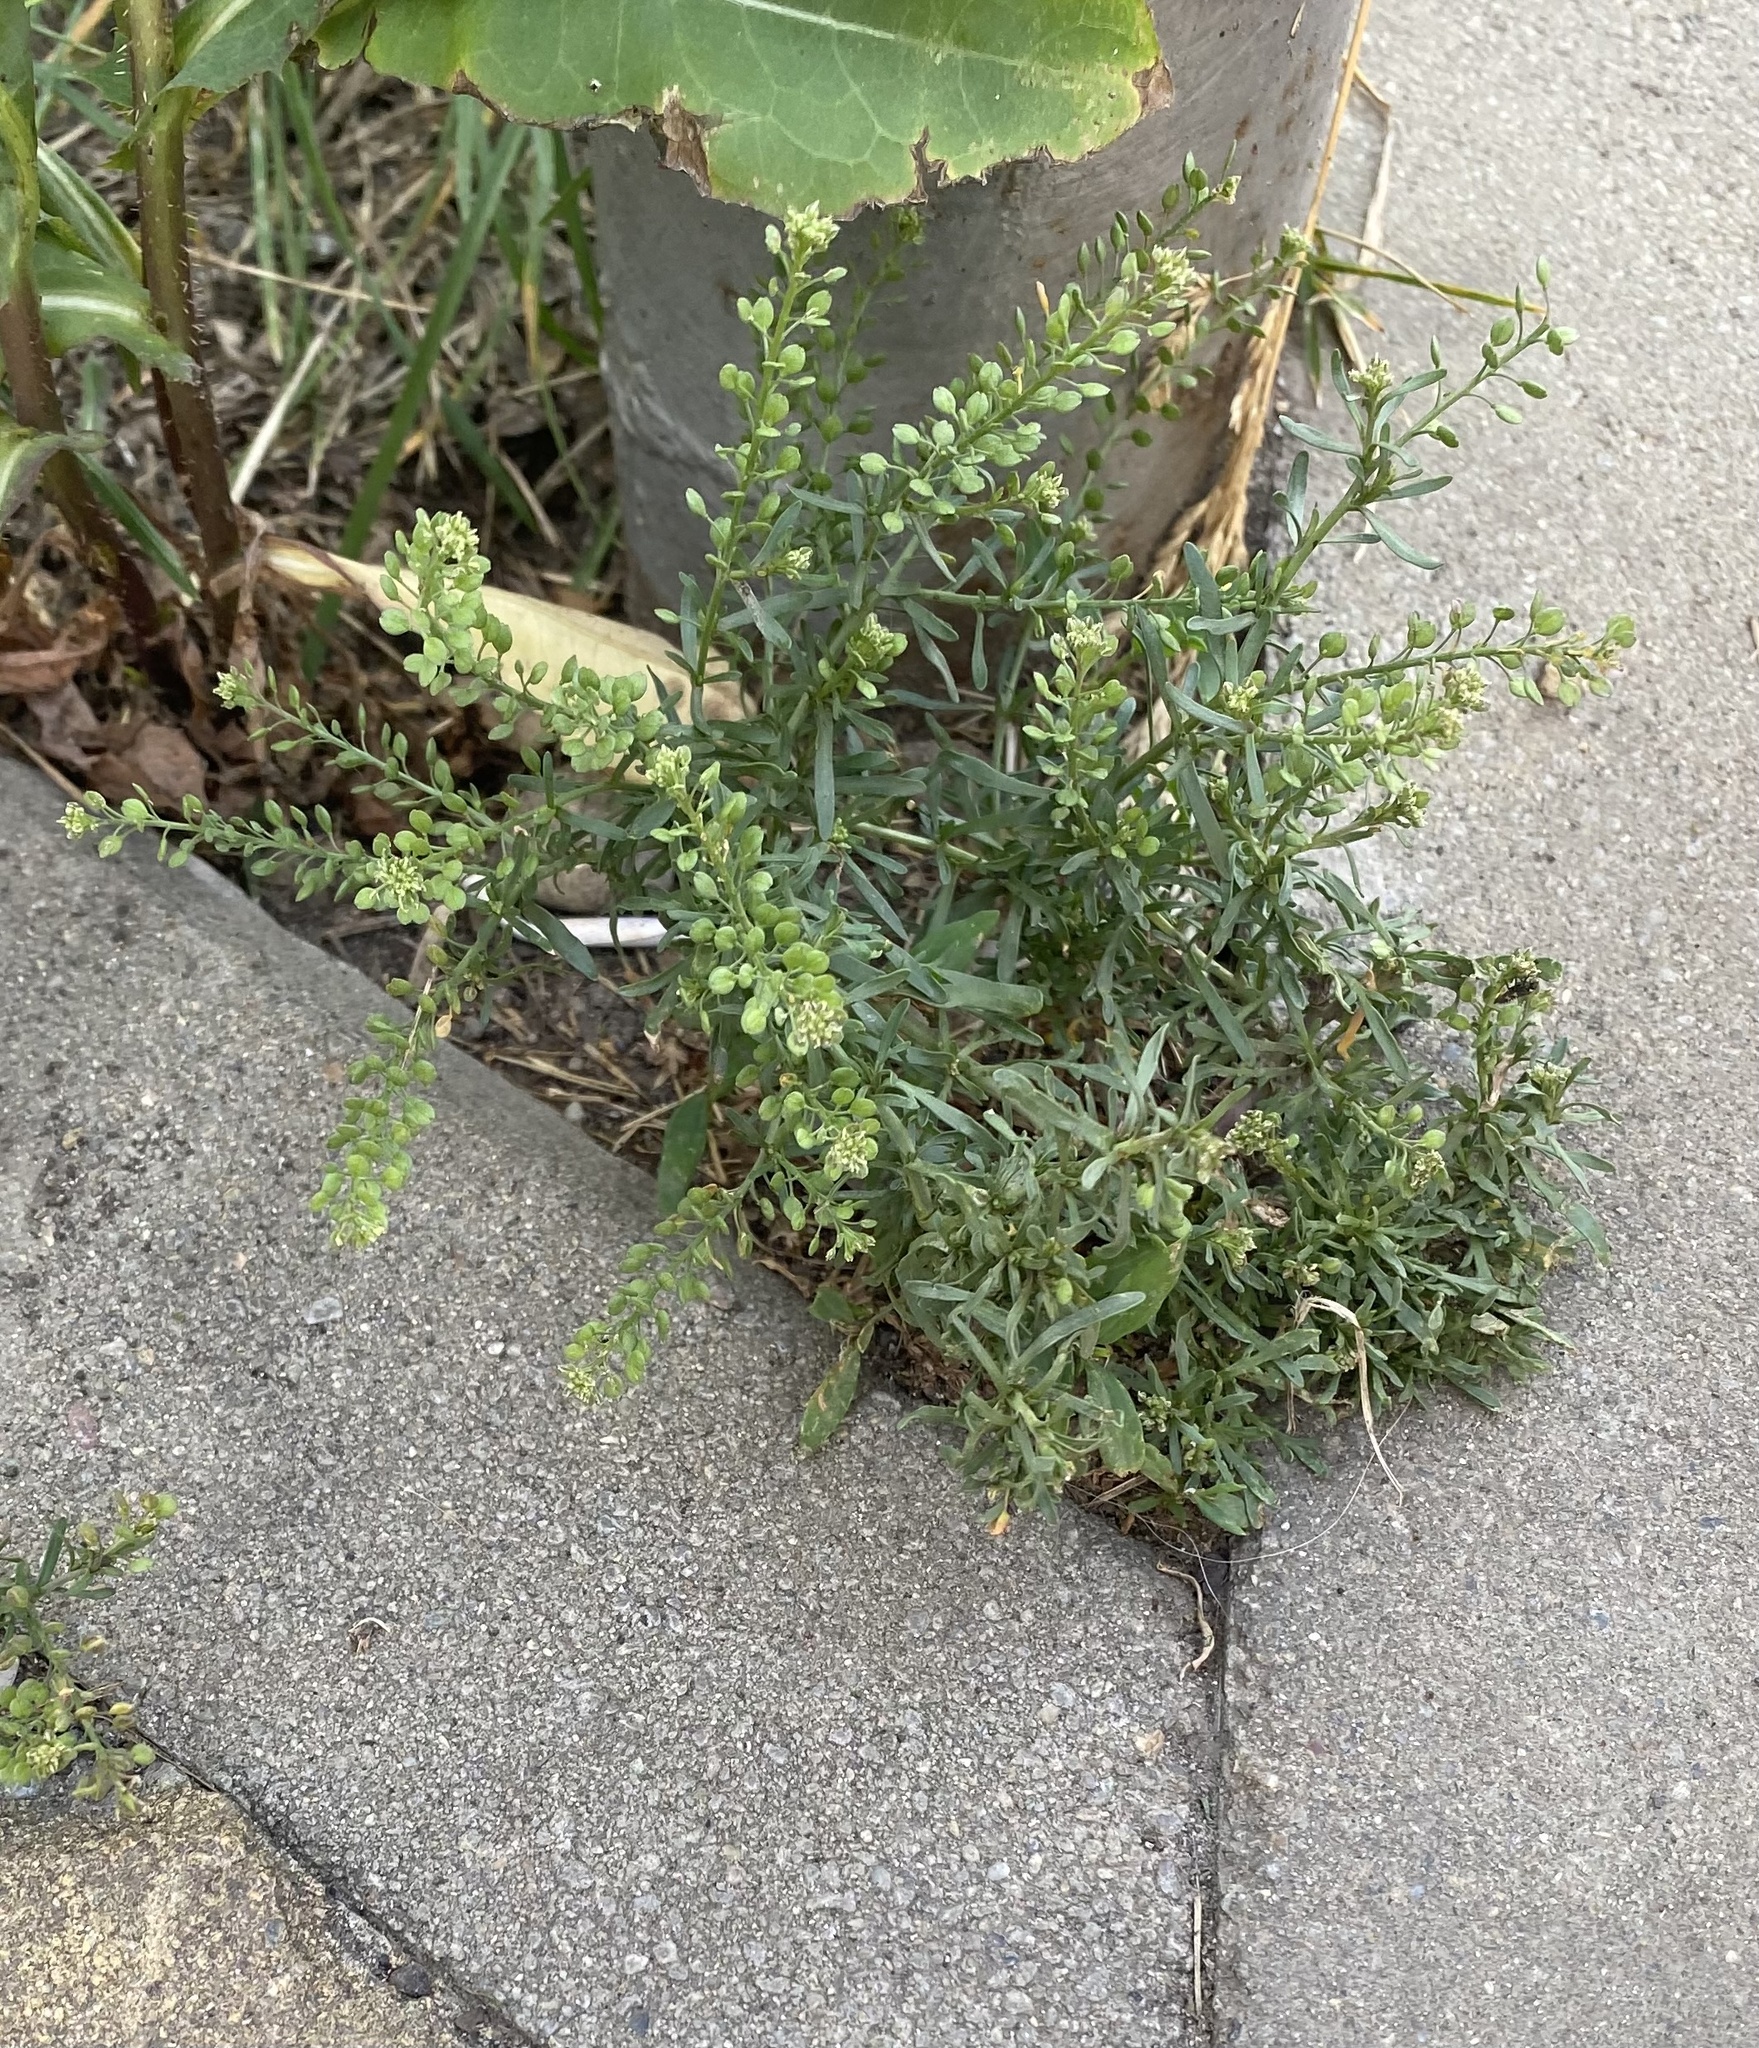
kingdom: Plantae
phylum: Tracheophyta
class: Magnoliopsida
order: Brassicales
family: Brassicaceae
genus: Lepidium
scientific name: Lepidium ruderale
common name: Narrow-leaved pepperwort
